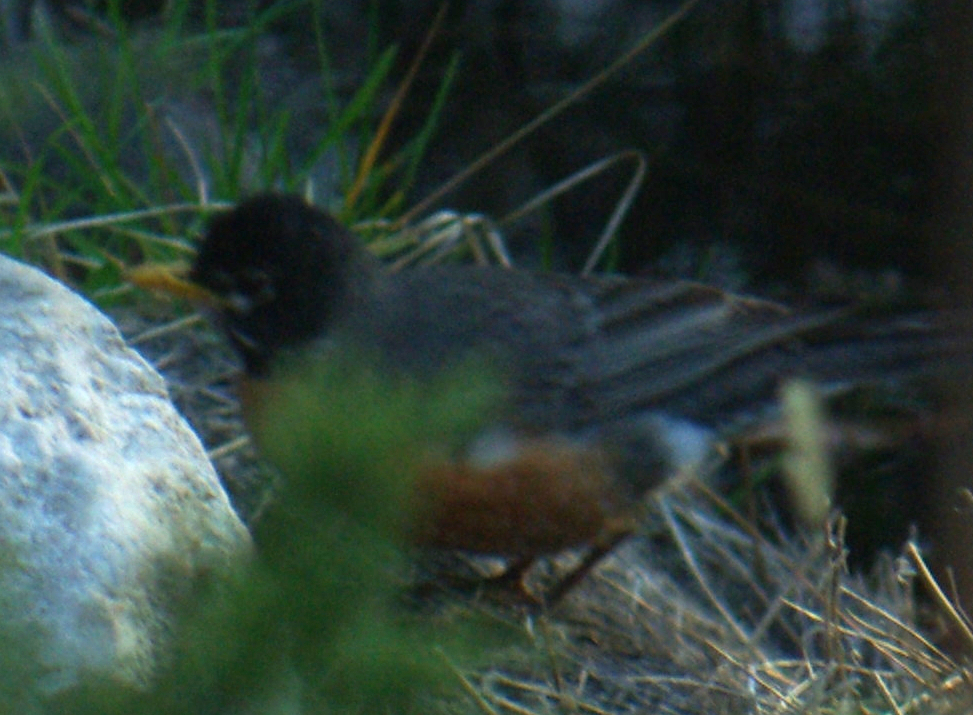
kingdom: Animalia
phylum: Chordata
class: Aves
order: Passeriformes
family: Turdidae
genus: Turdus
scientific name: Turdus migratorius
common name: American robin
